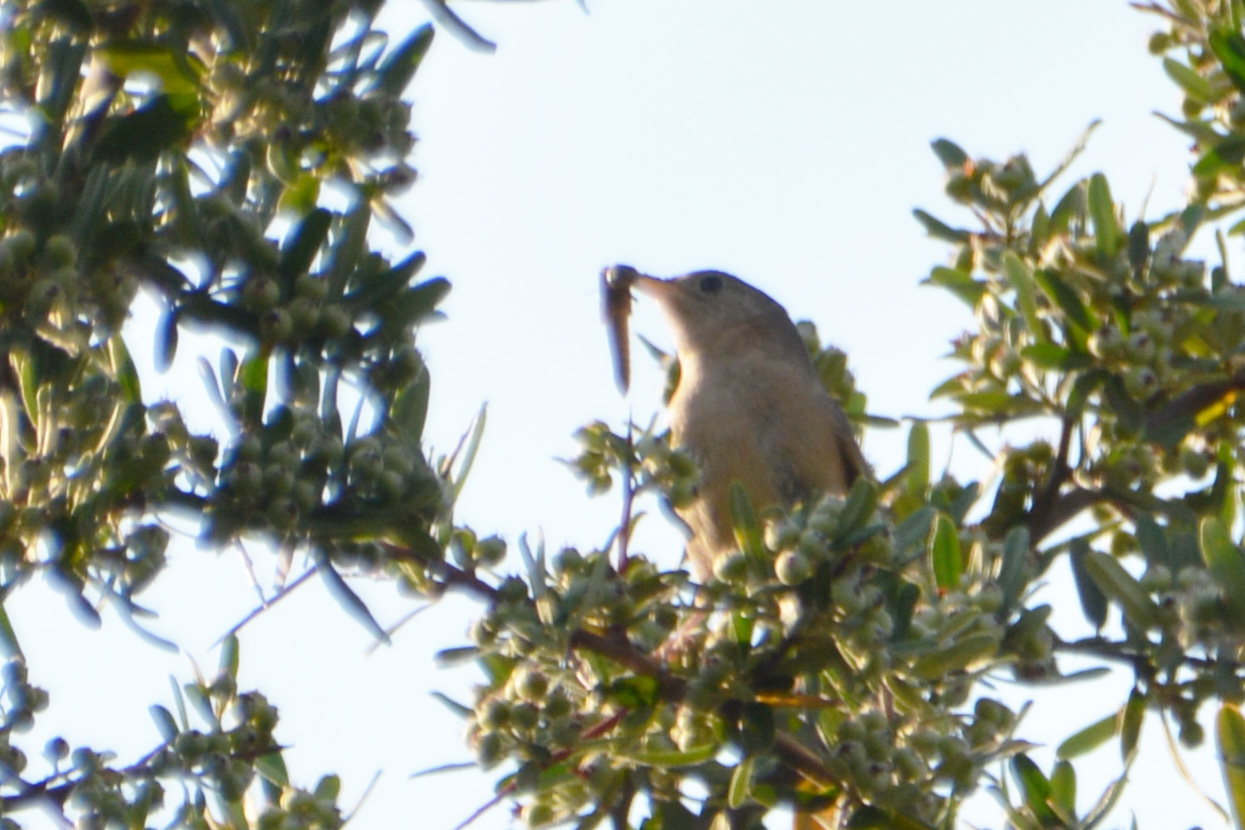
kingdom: Animalia
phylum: Chordata
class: Aves
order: Passeriformes
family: Troglodytidae
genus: Troglodytes
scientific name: Troglodytes aedon
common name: House wren
